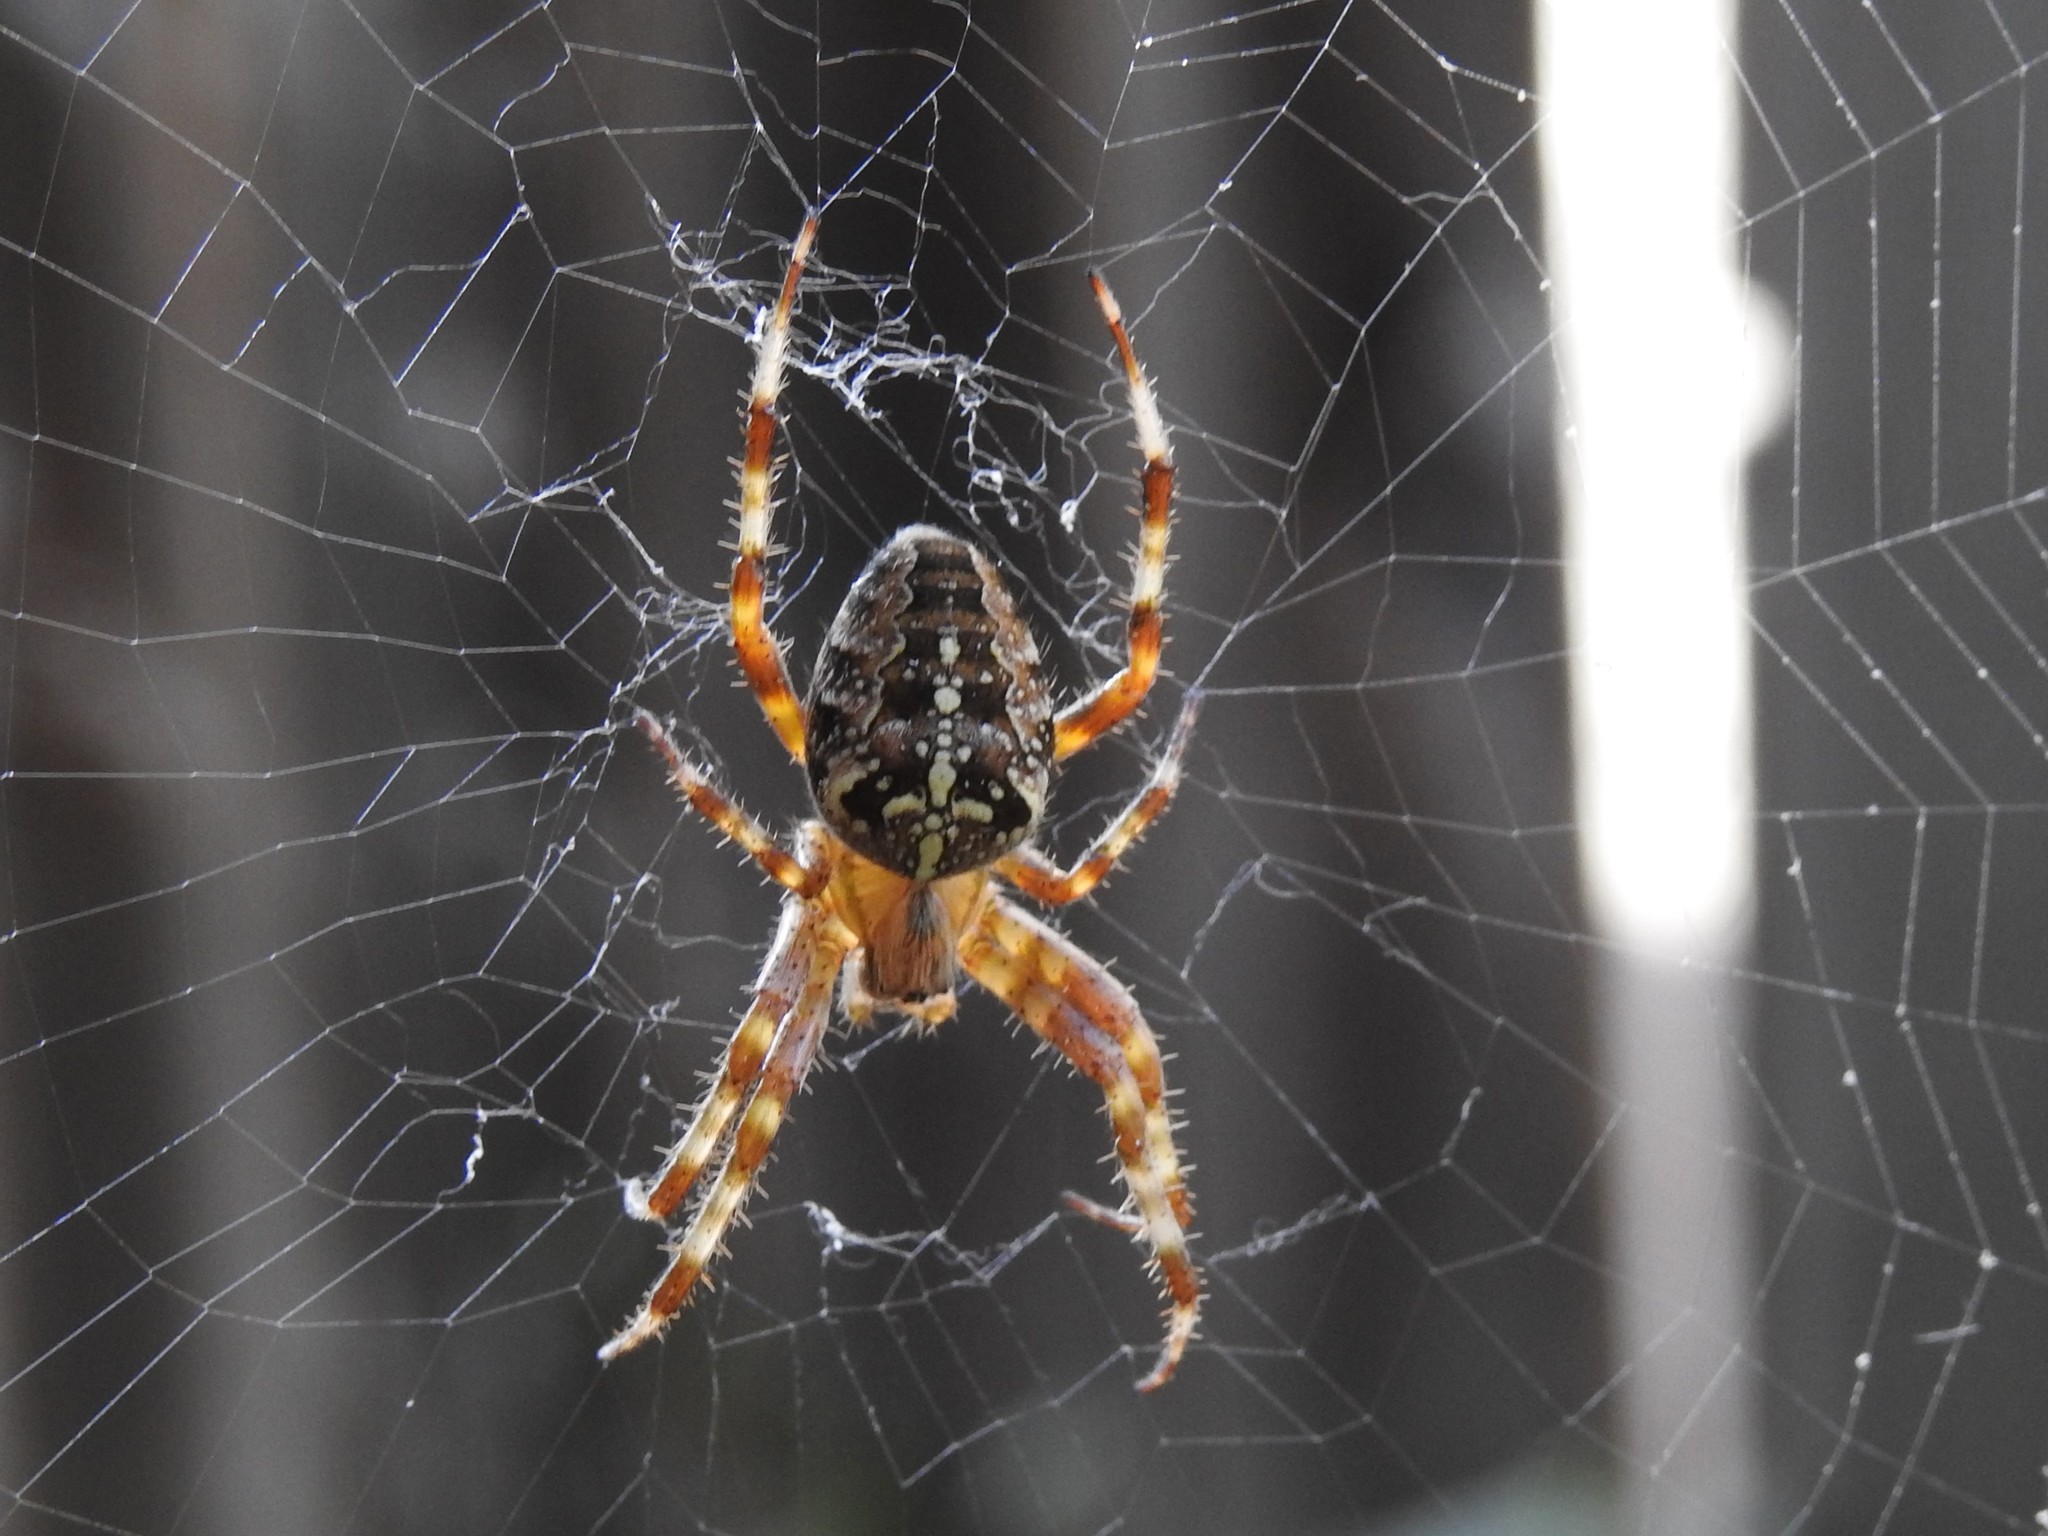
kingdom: Animalia
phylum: Arthropoda
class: Arachnida
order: Araneae
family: Araneidae
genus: Araneus
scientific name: Araneus diadematus
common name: Cross orbweaver
